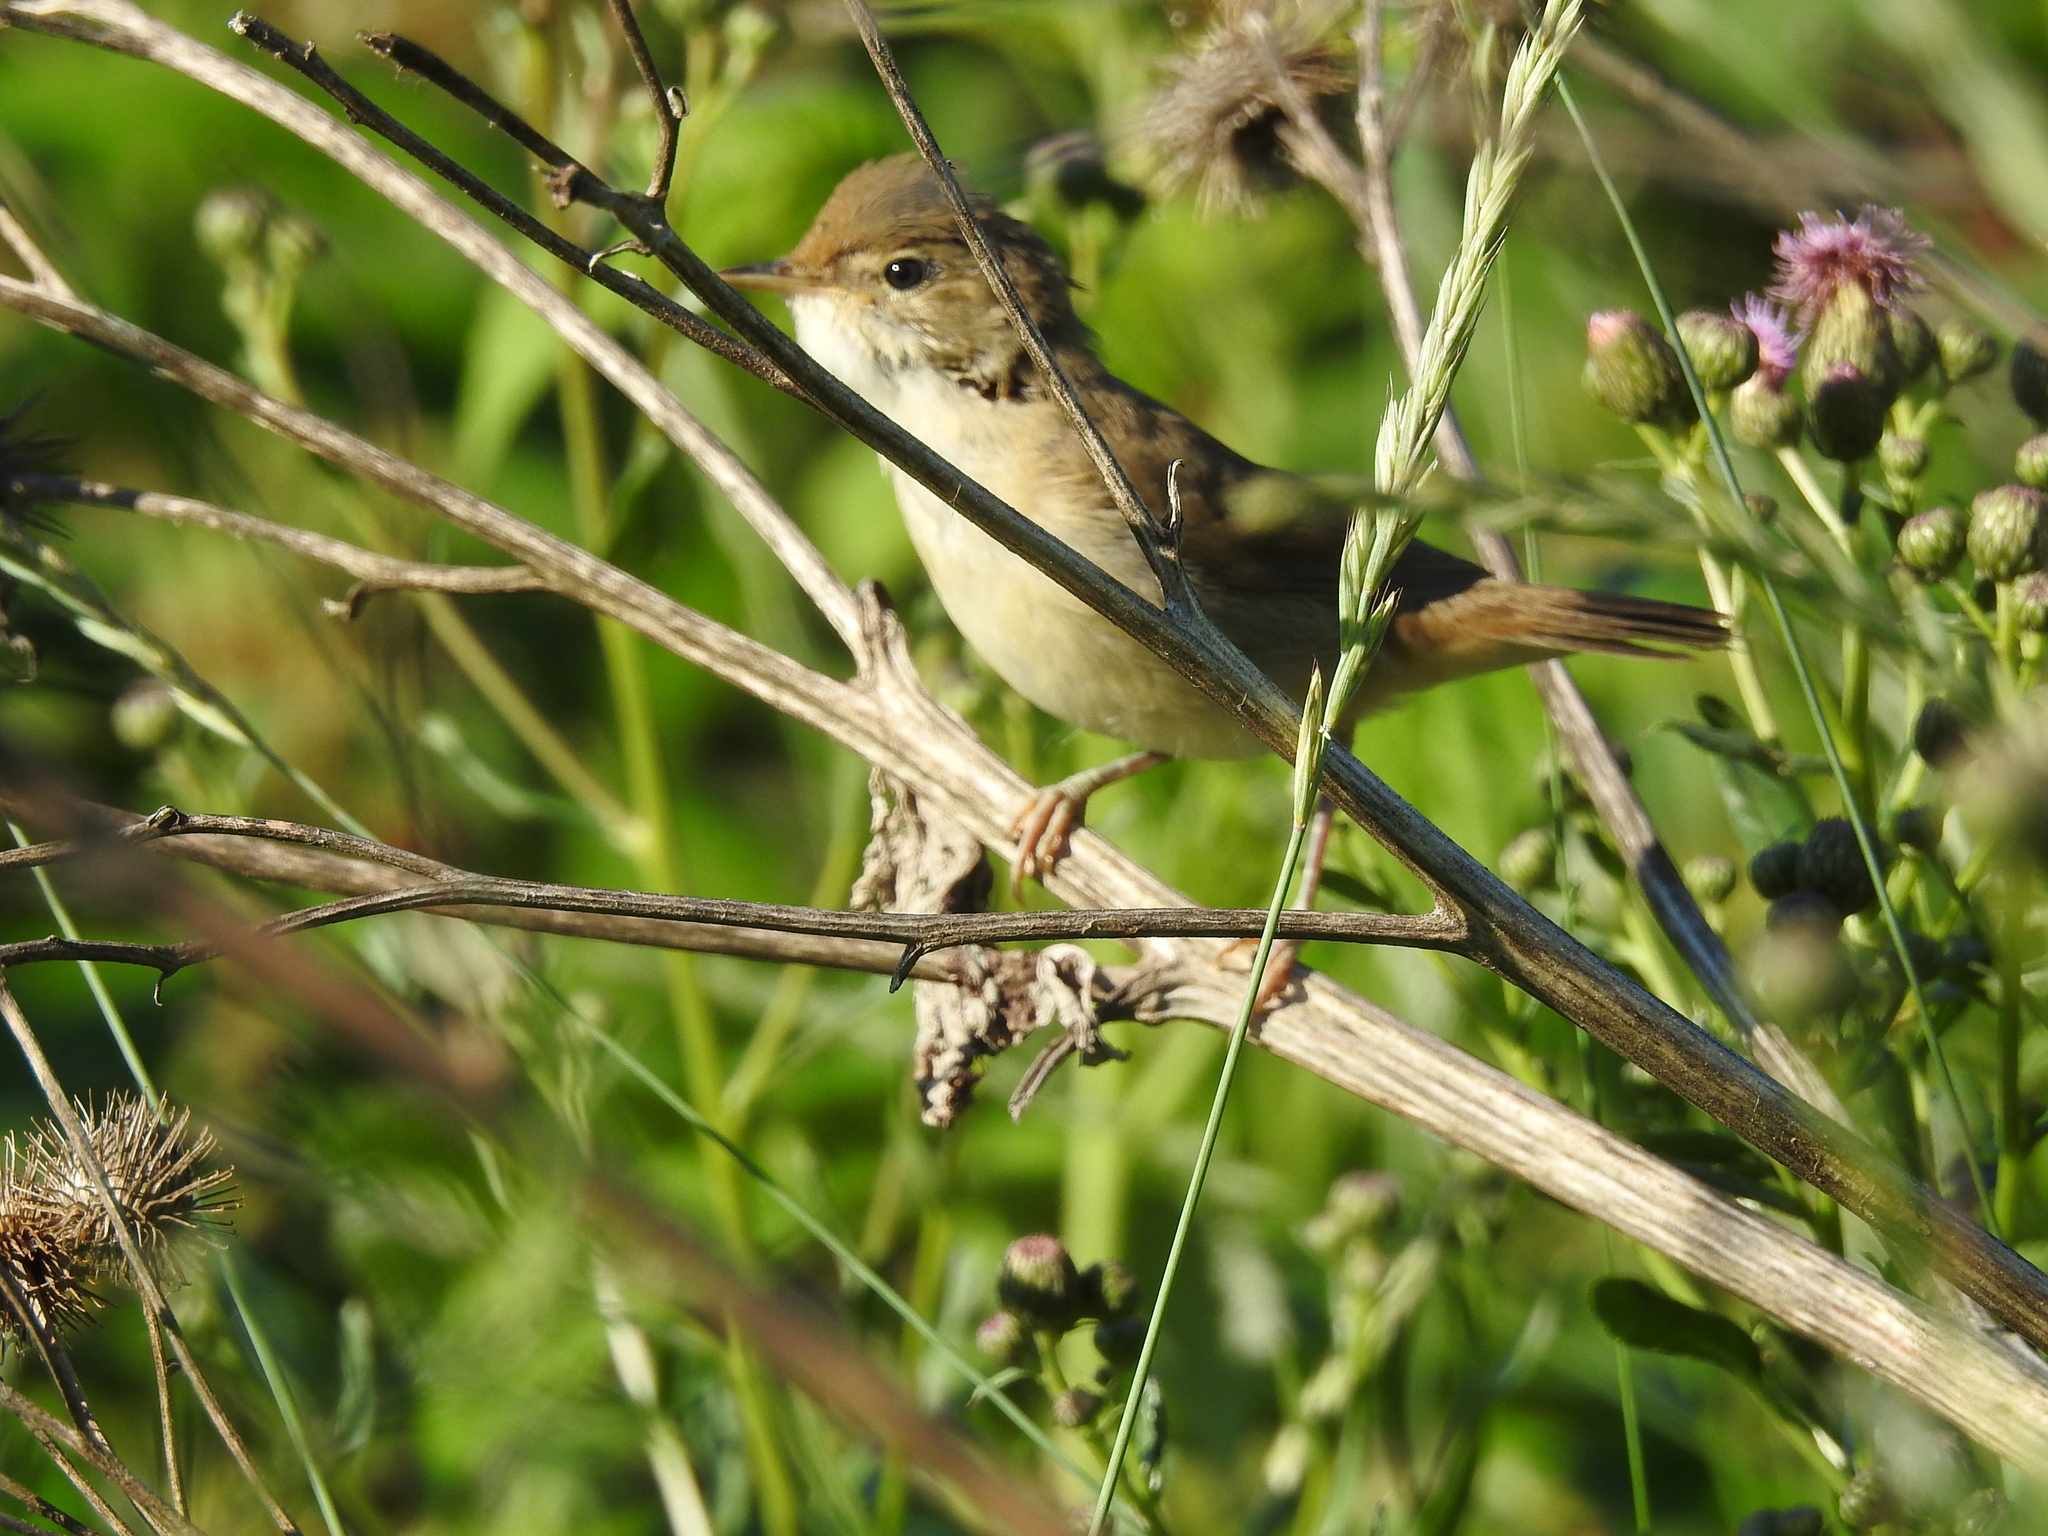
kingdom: Animalia
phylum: Chordata
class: Aves
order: Passeriformes
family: Acrocephalidae
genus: Iduna
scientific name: Iduna caligata
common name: Booted warbler
